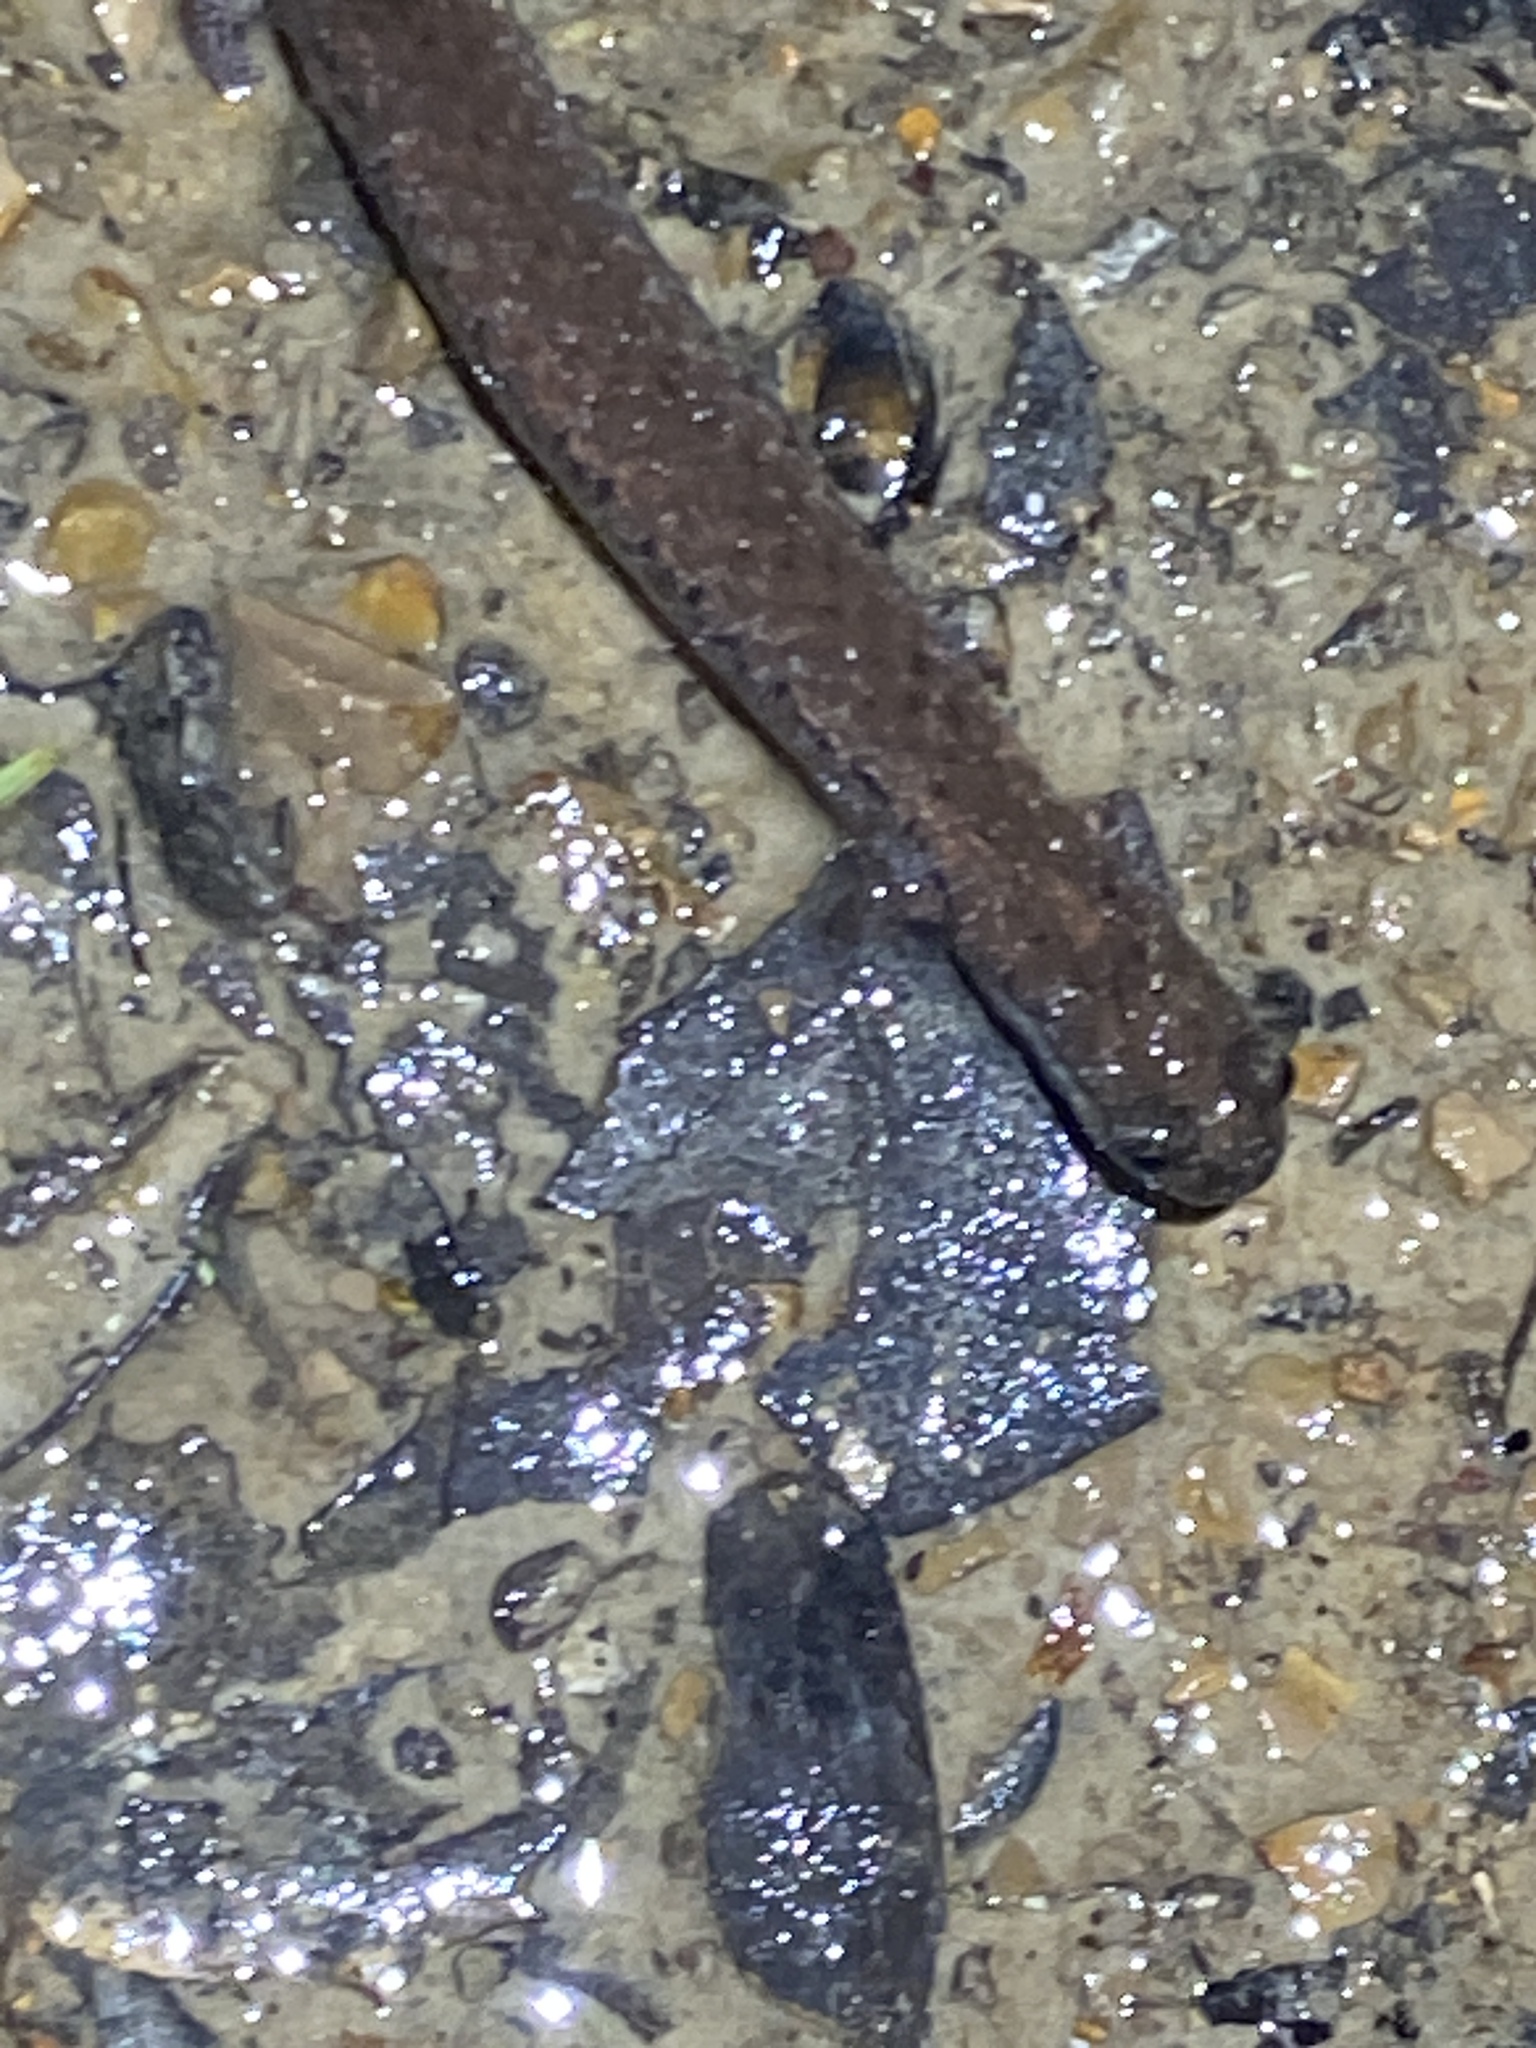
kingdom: Animalia
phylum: Chordata
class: Amphibia
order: Caudata
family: Plethodontidae
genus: Batrachoseps
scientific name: Batrachoseps attenuatus
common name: California slender salamander
